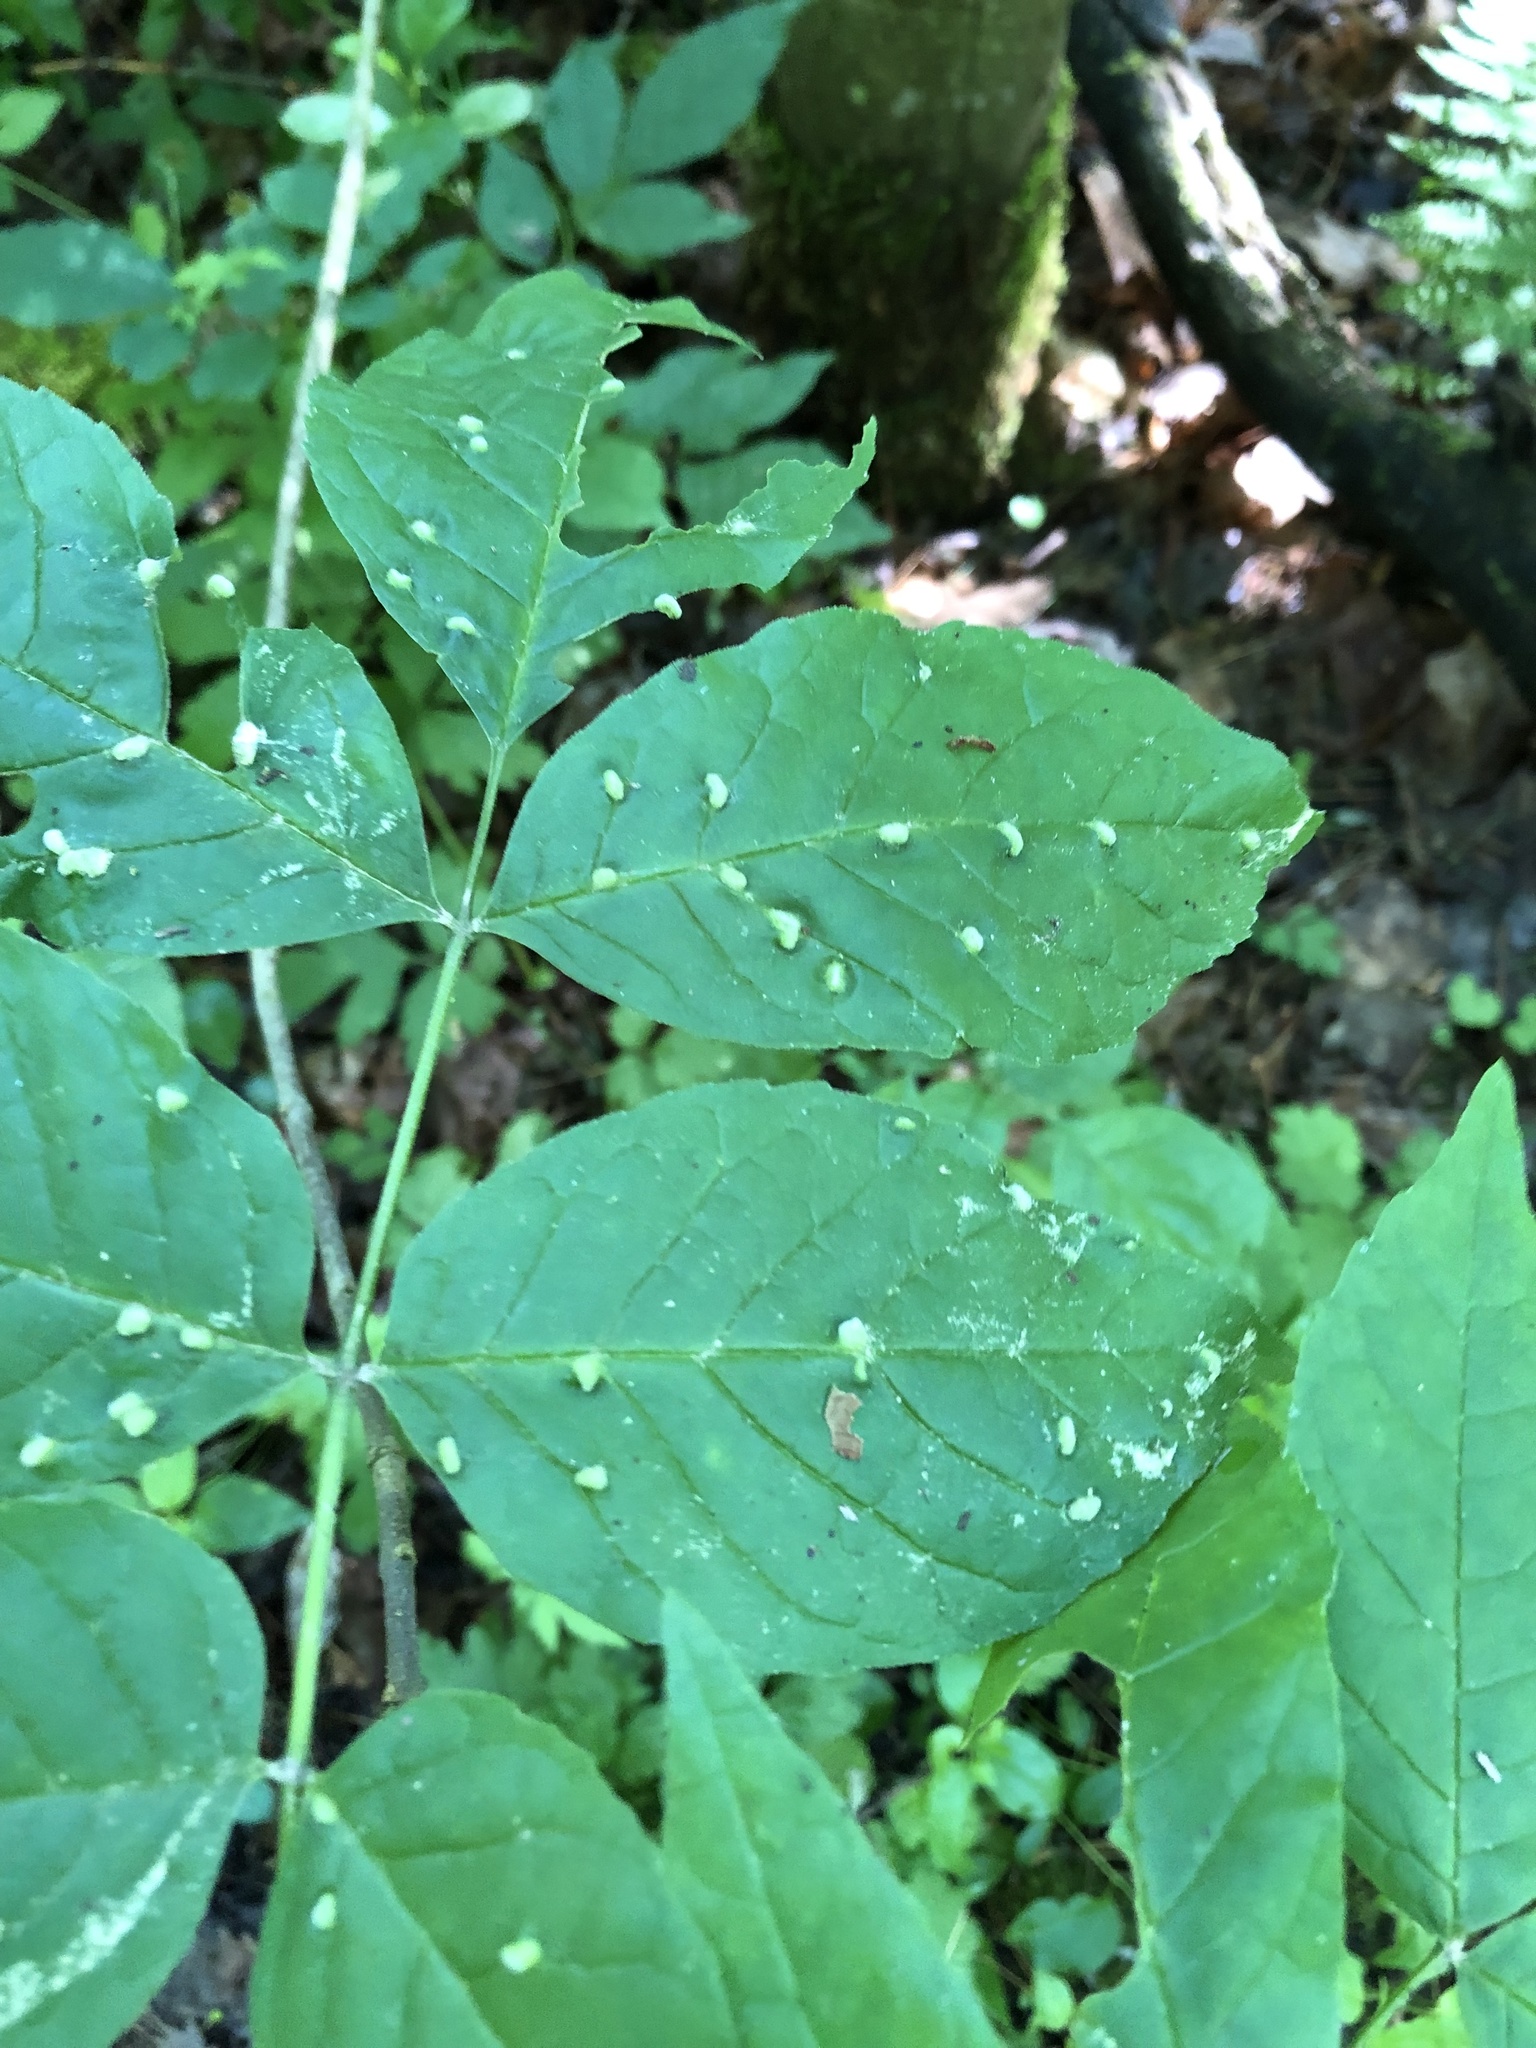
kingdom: Animalia
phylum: Arthropoda
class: Arachnida
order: Trombidiformes
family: Eriophyidae
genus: Aceria
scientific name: Aceria fraxinicola
